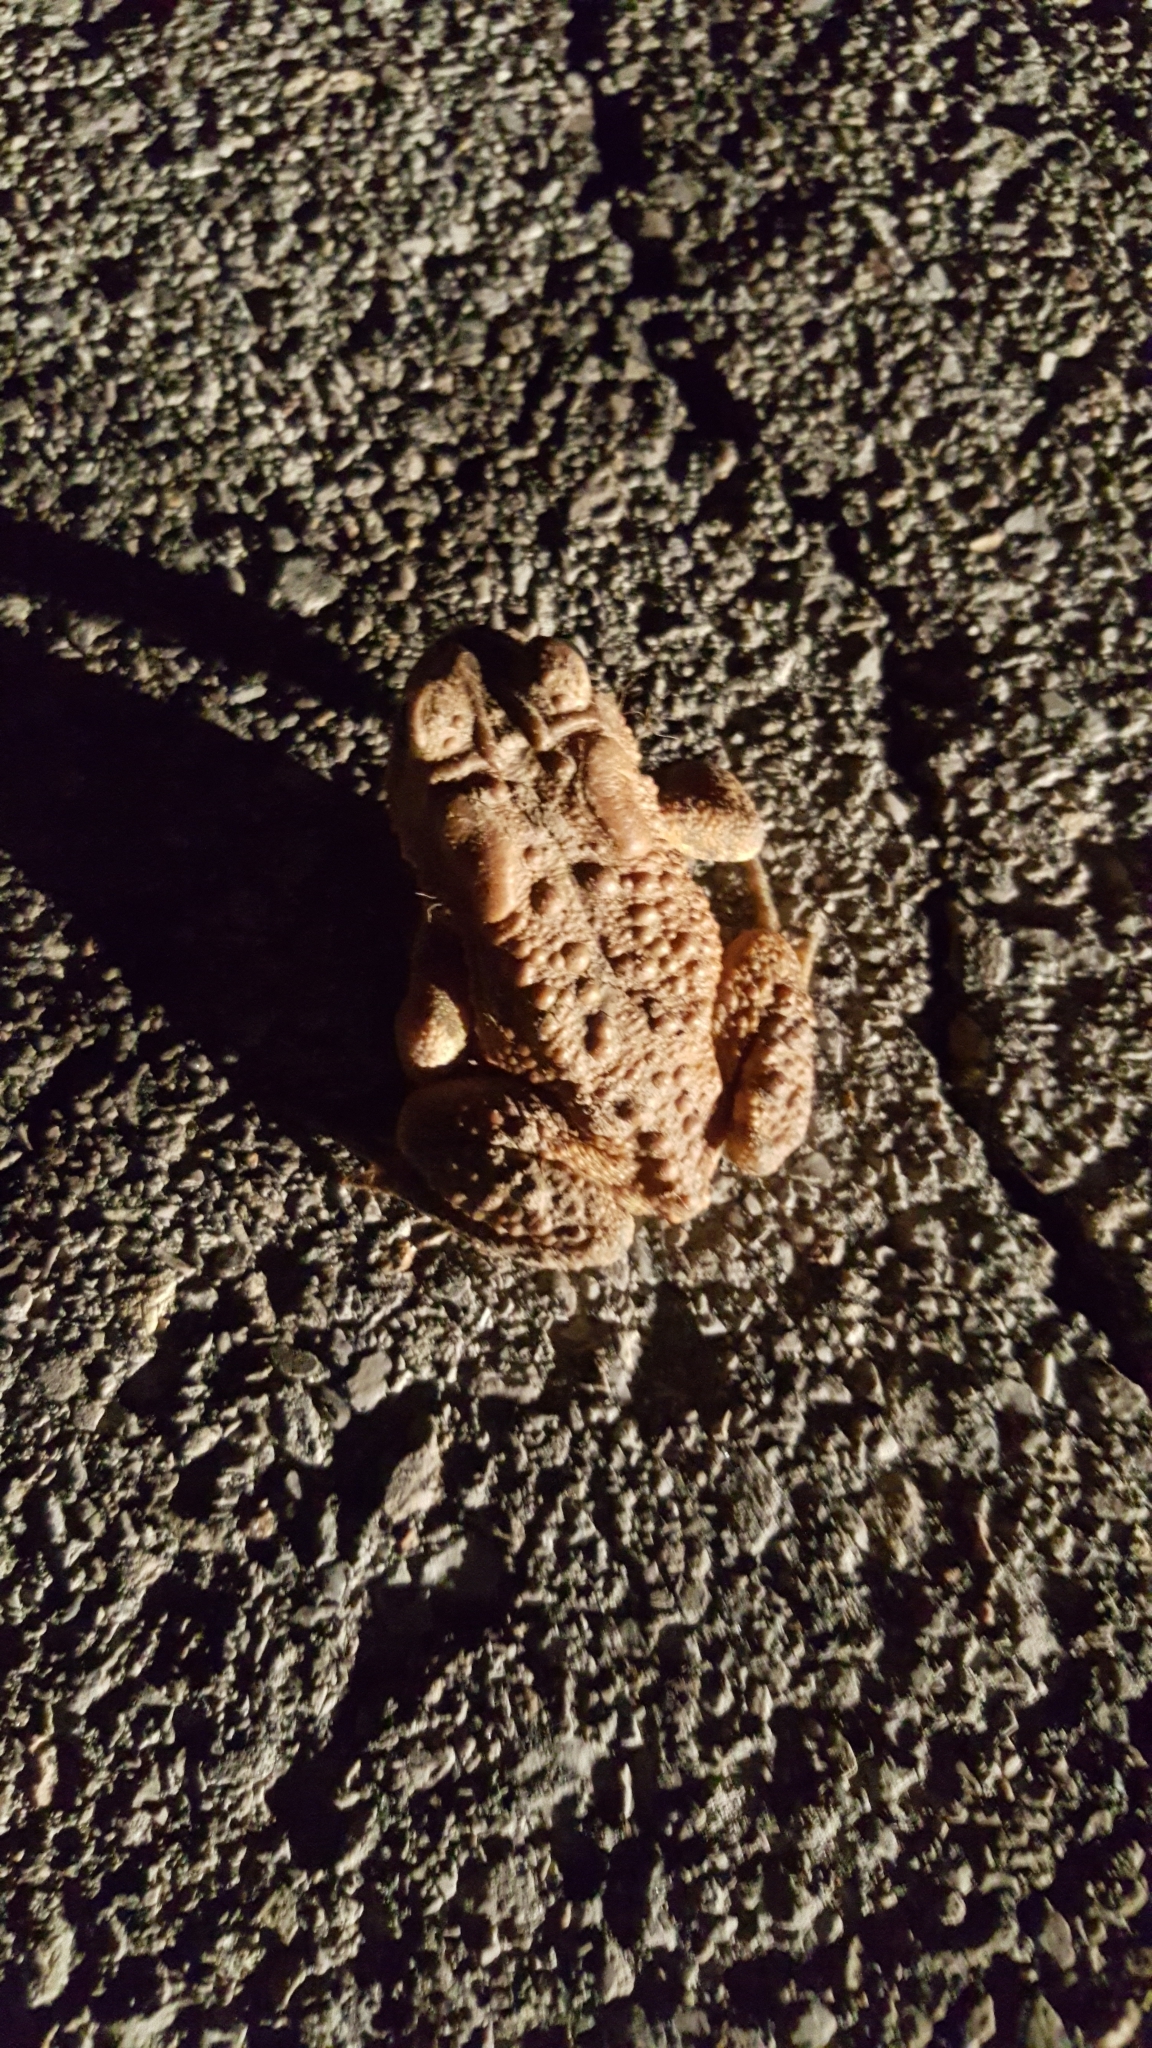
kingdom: Animalia
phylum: Chordata
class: Amphibia
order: Anura
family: Bufonidae
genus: Anaxyrus
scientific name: Anaxyrus americanus
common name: American toad
